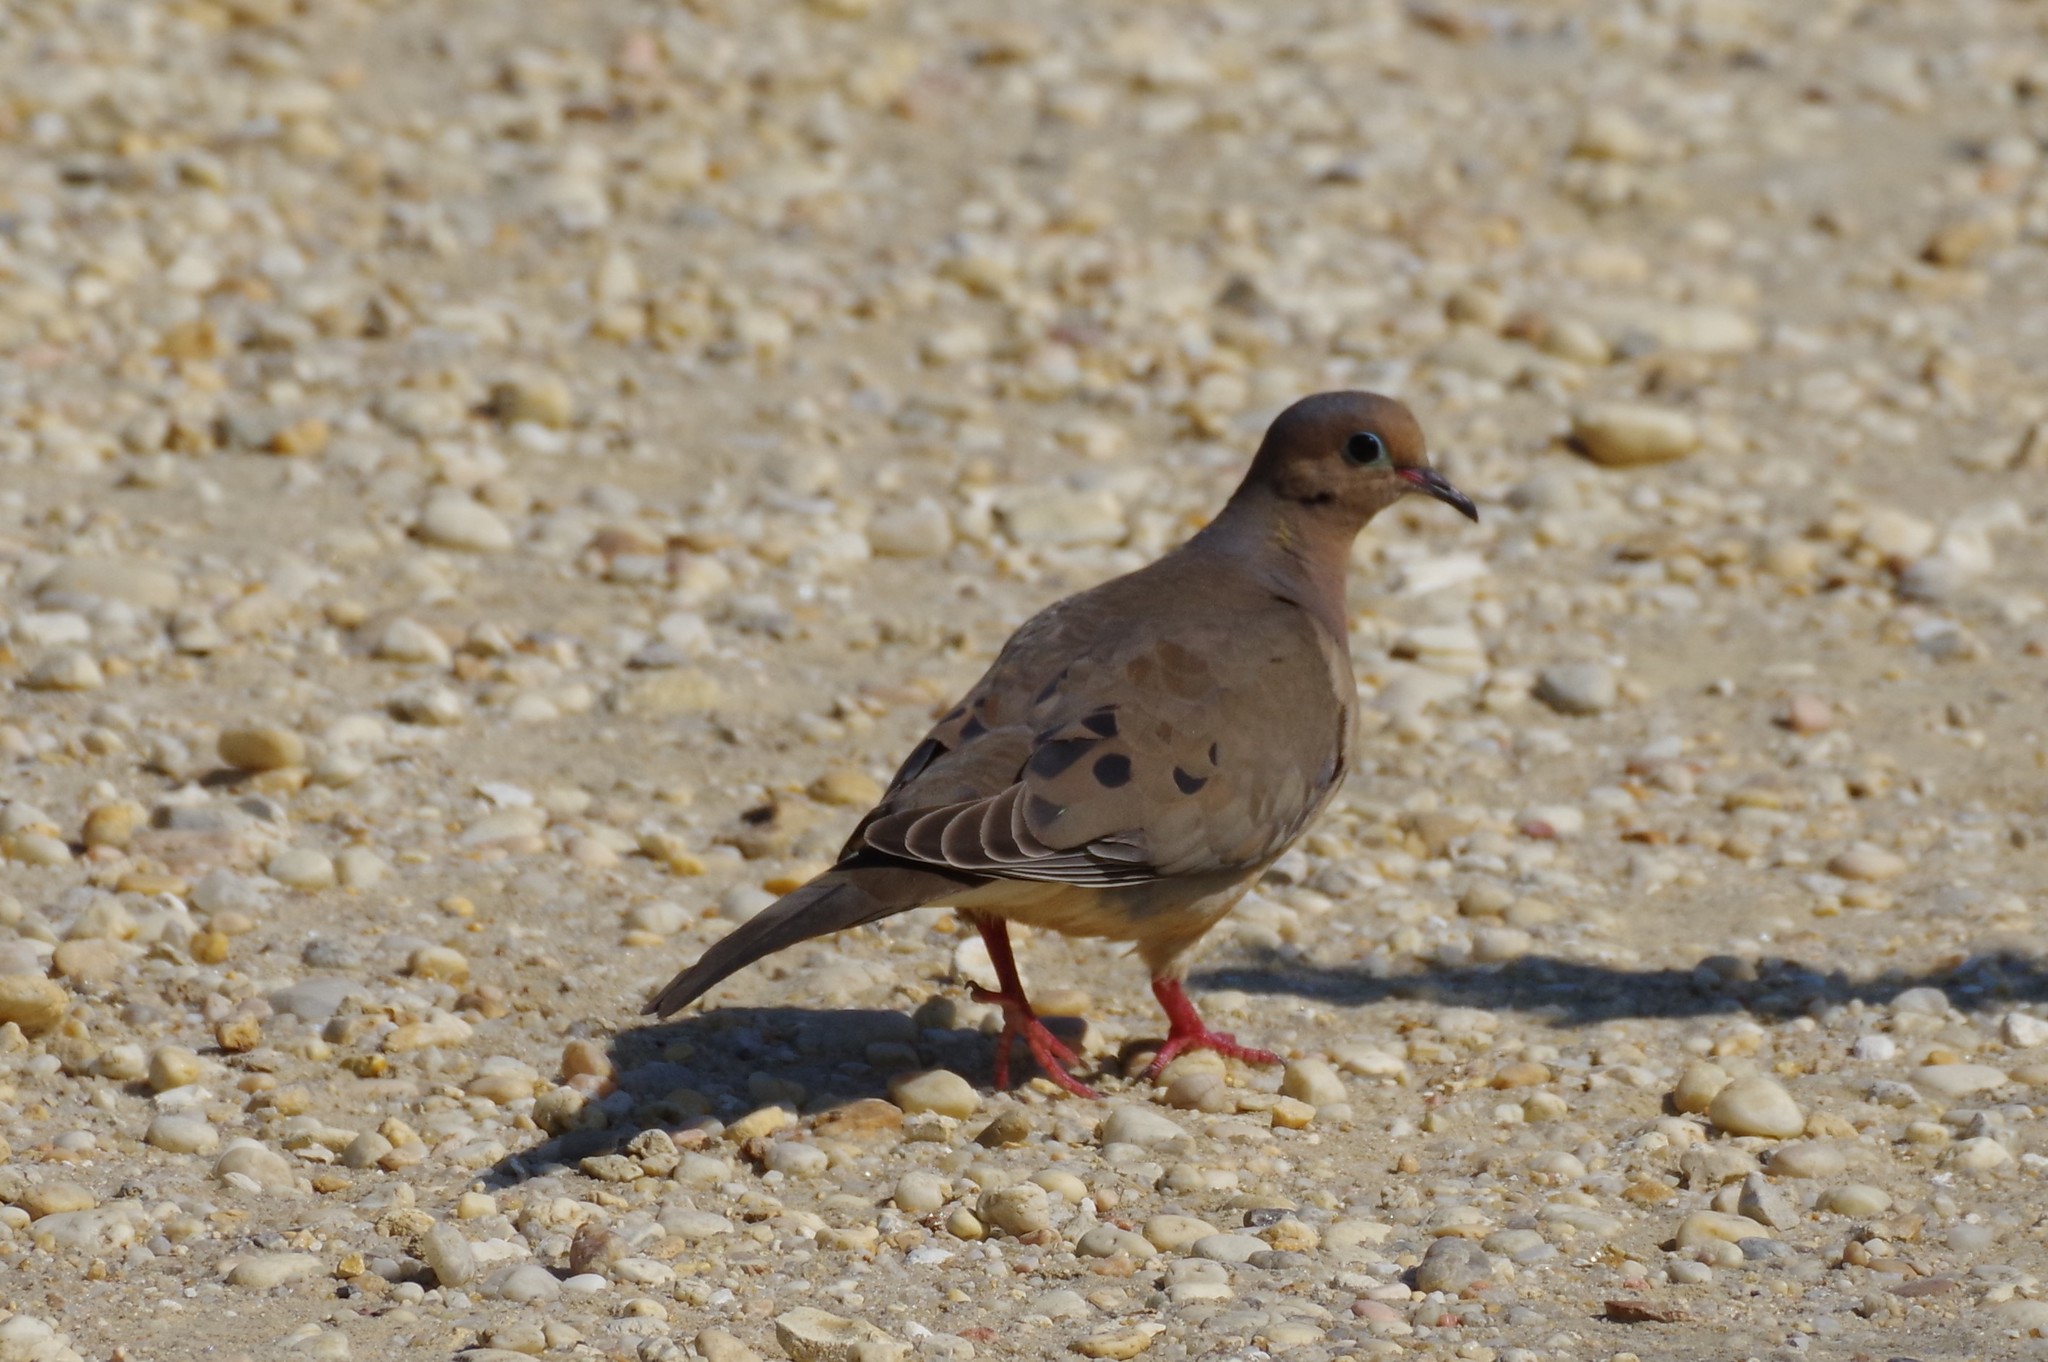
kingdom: Animalia
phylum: Chordata
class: Aves
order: Columbiformes
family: Columbidae
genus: Zenaida
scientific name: Zenaida macroura
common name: Mourning dove
